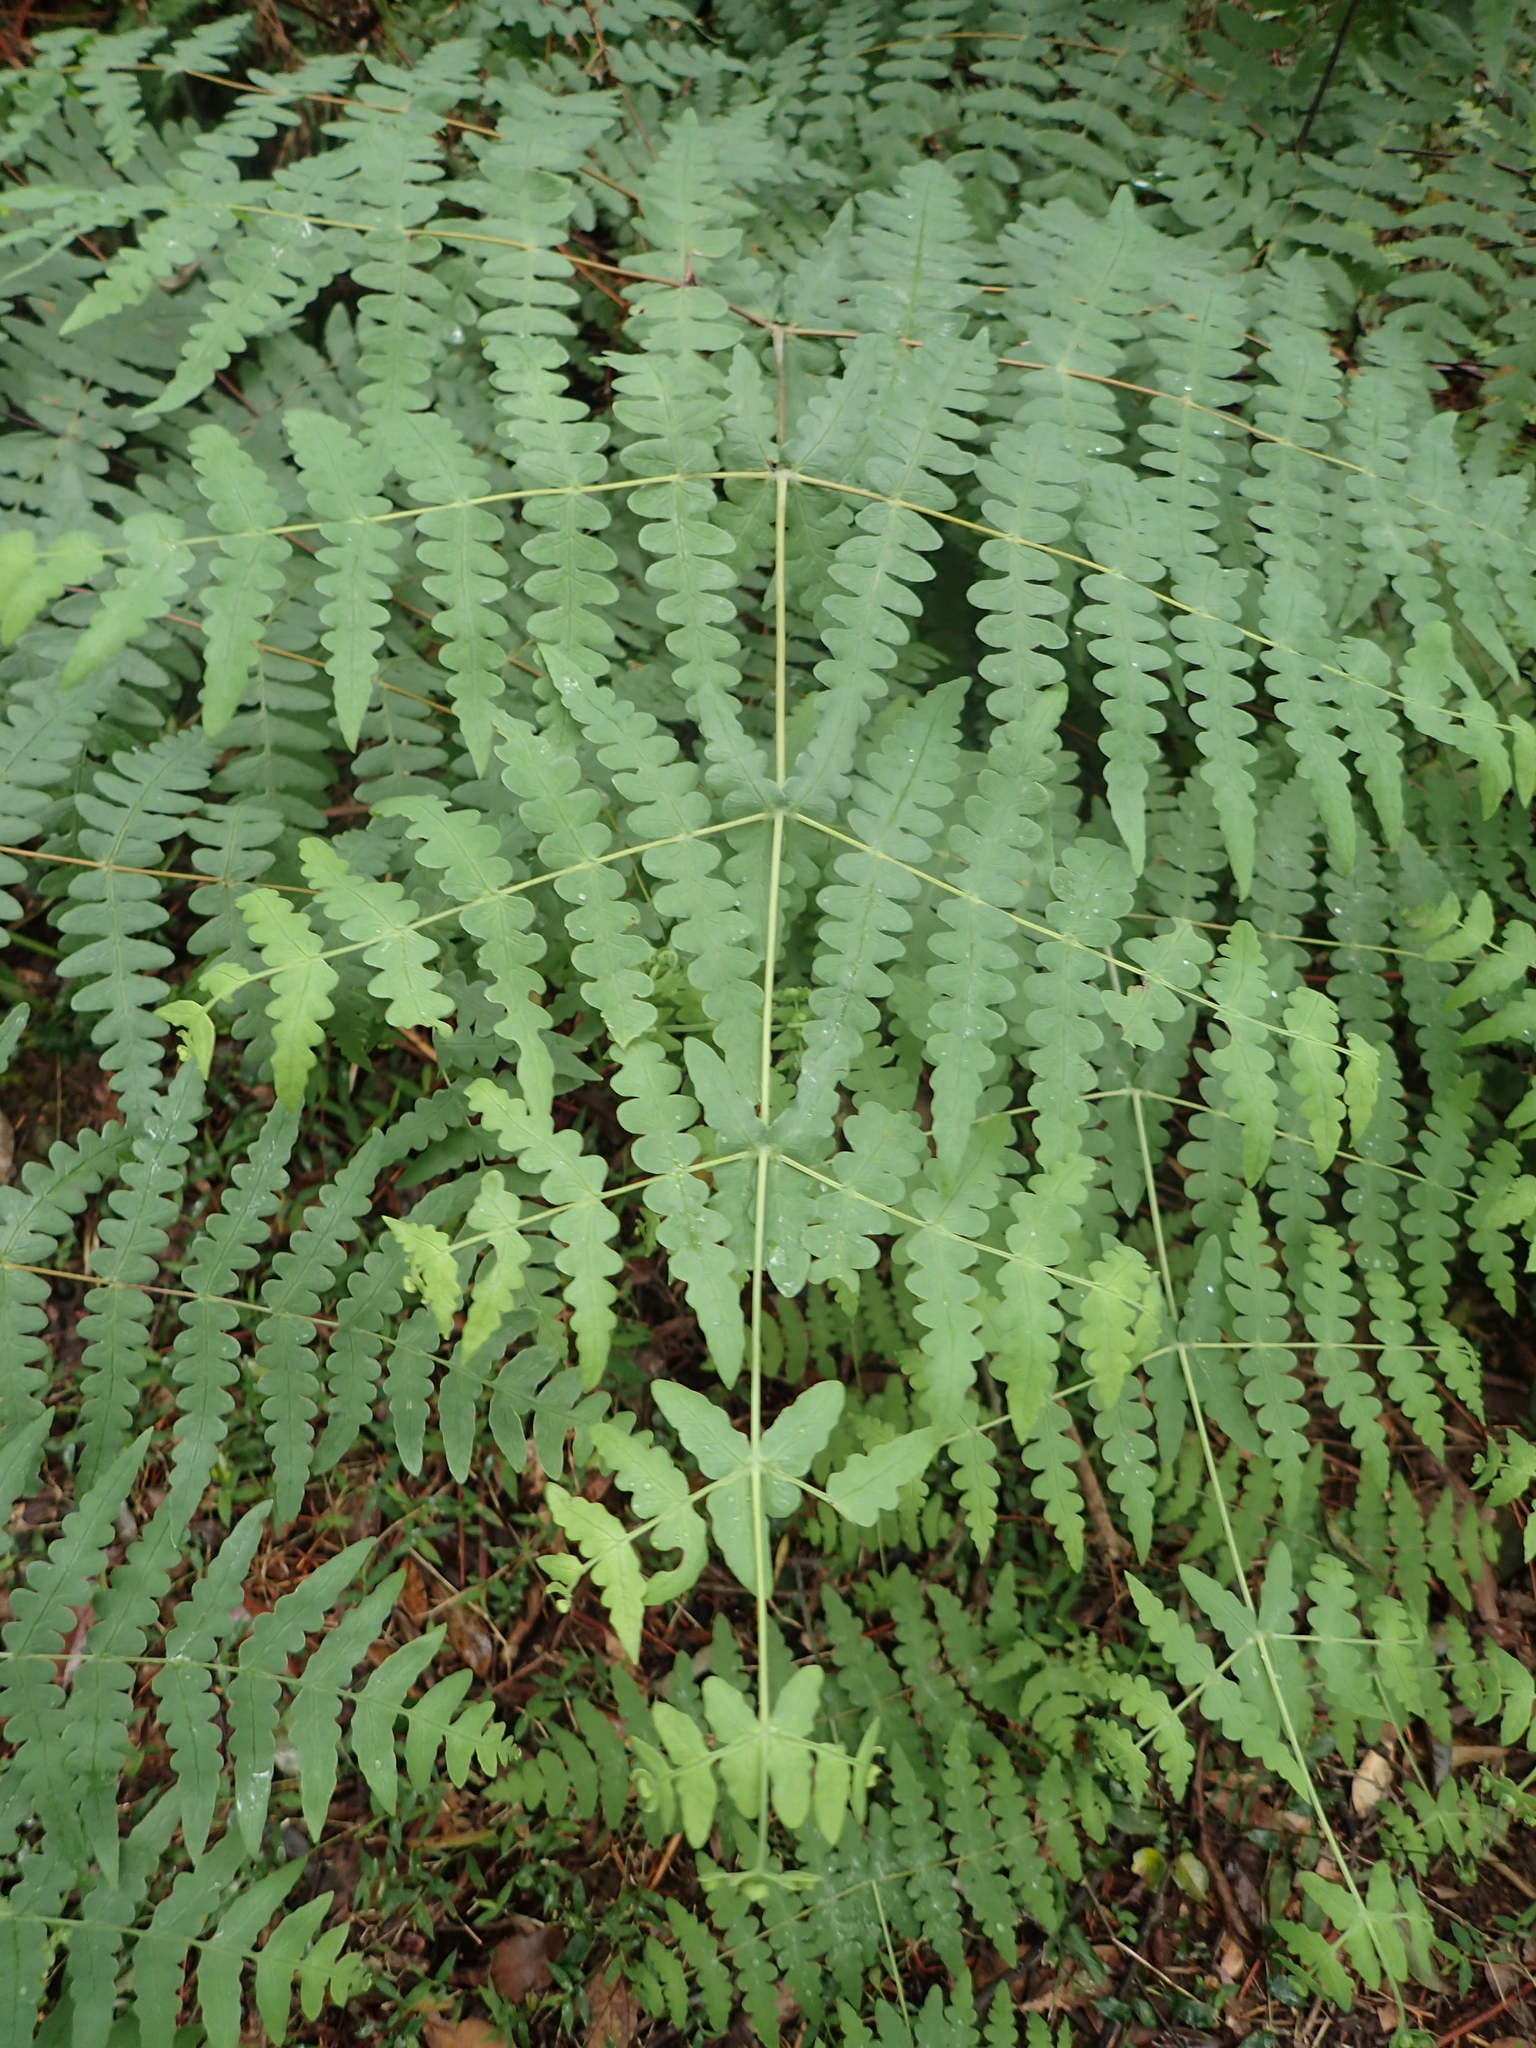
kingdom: Plantae
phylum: Tracheophyta
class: Polypodiopsida
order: Polypodiales
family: Dennstaedtiaceae
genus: Histiopteris
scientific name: Histiopteris incisa
